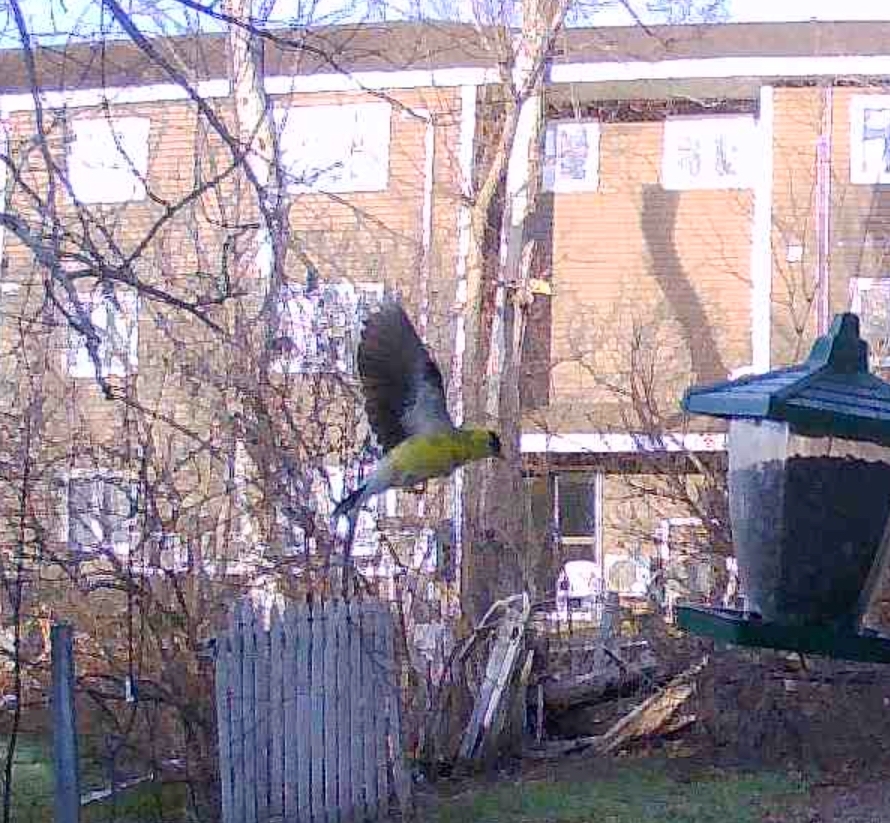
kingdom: Animalia
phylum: Chordata
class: Aves
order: Passeriformes
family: Fringillidae
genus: Spinus
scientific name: Spinus tristis
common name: American goldfinch
